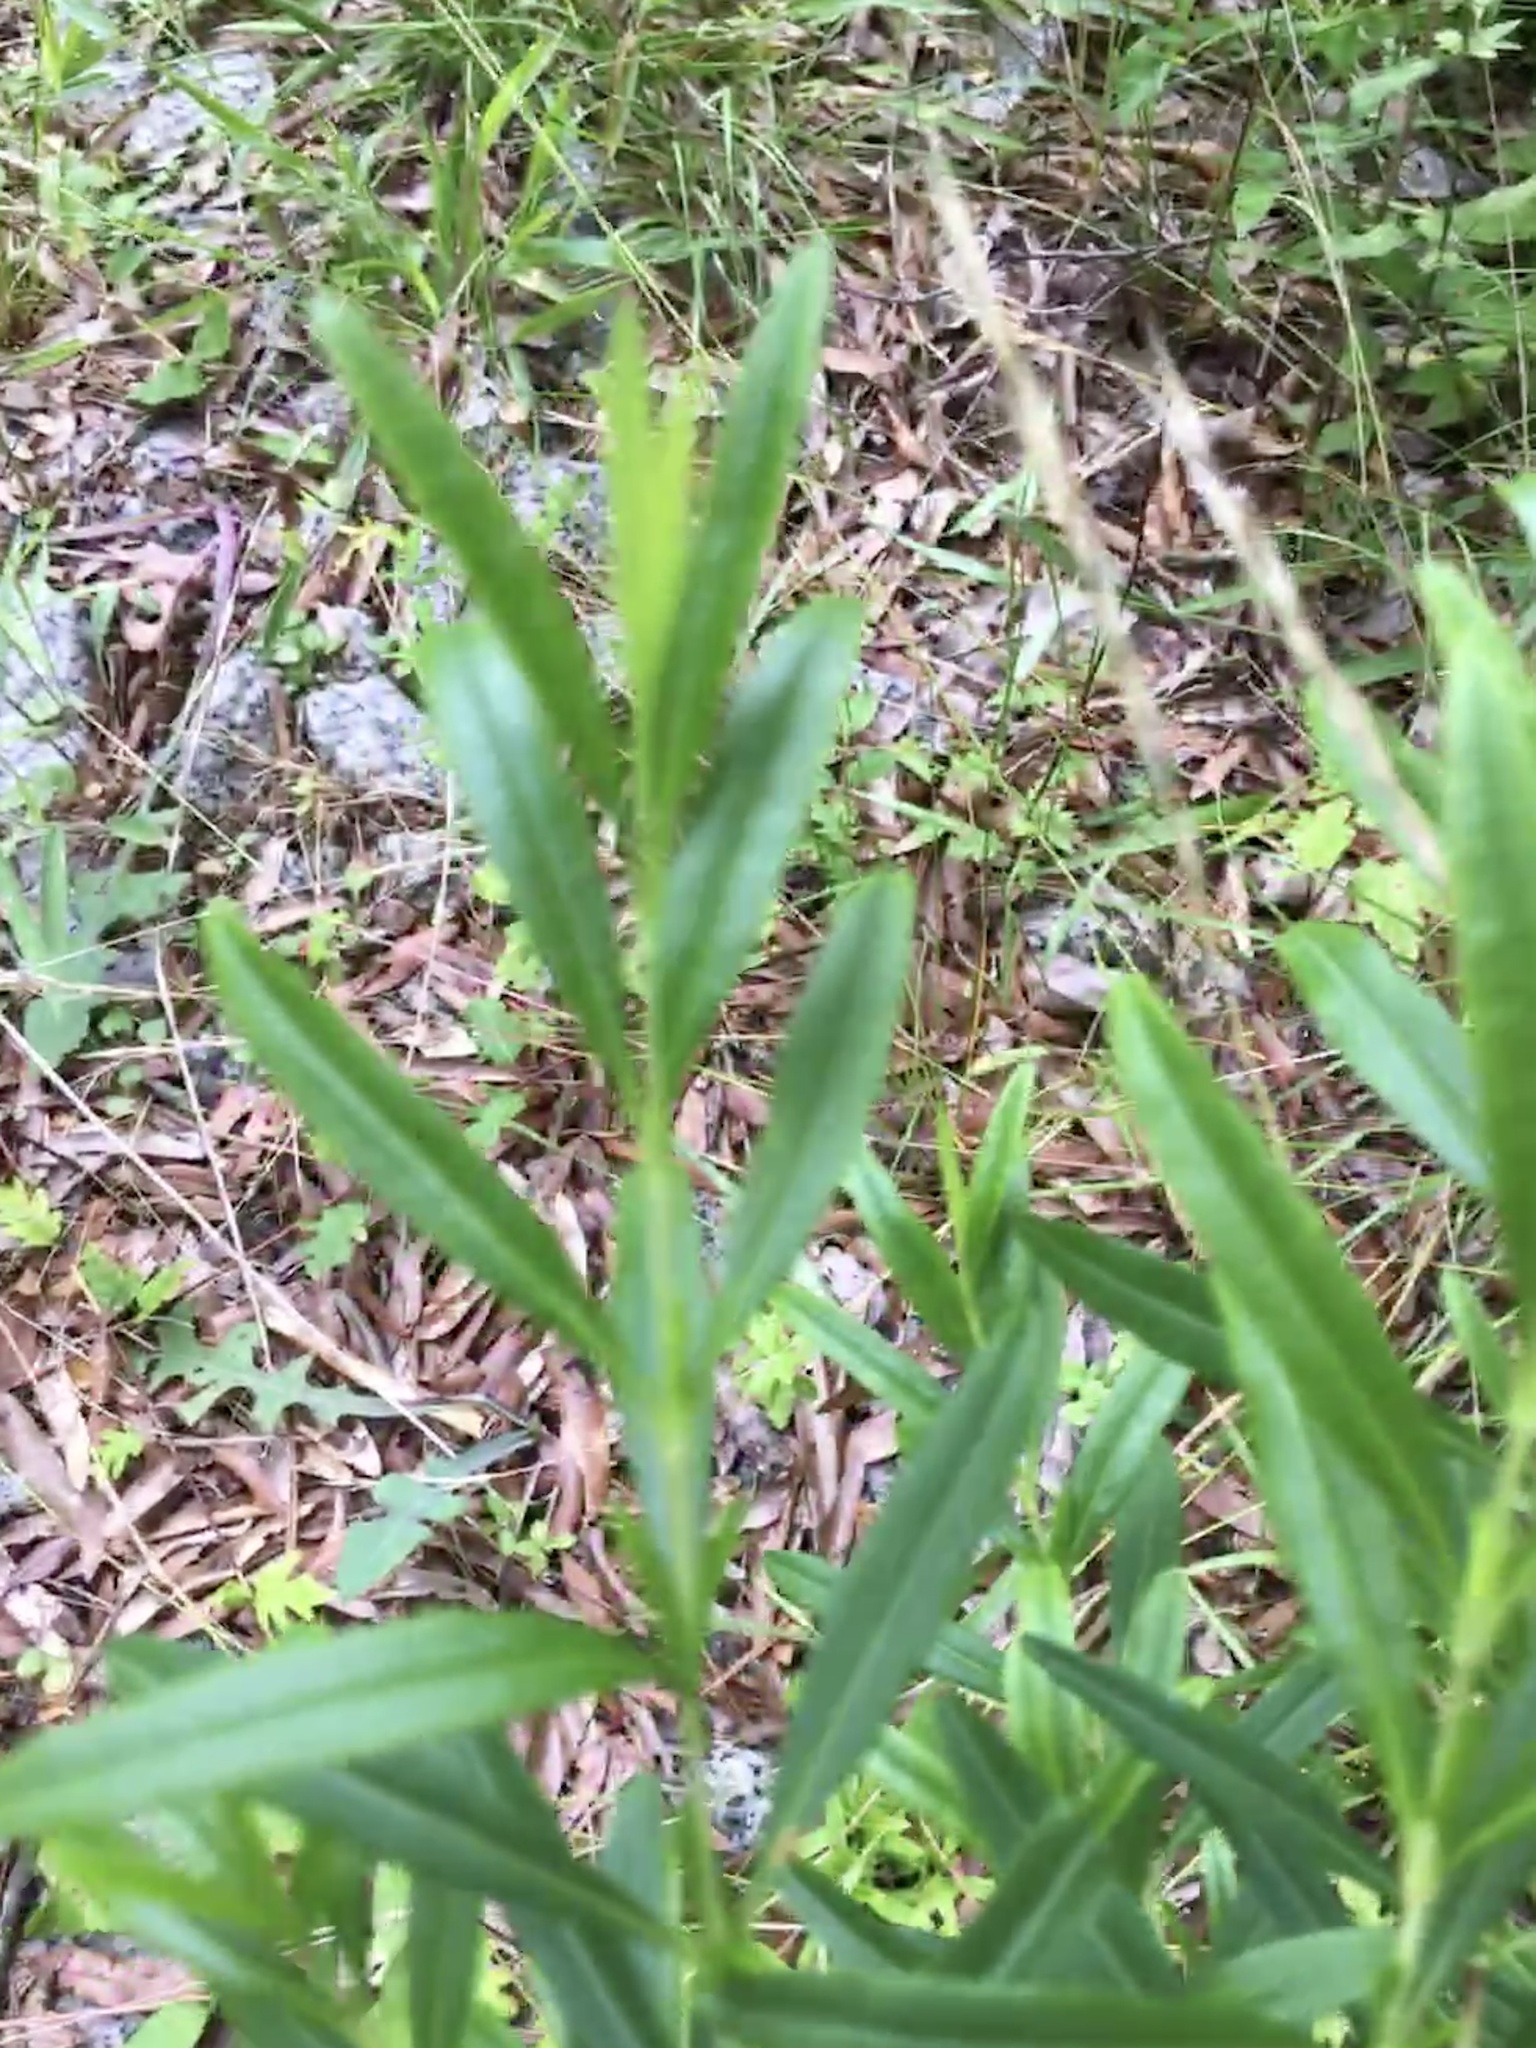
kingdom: Plantae
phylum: Tracheophyta
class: Magnoliopsida
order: Malpighiales
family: Hypericaceae
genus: Hypericum
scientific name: Hypericum prolificum
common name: Shrubby st. john's-wort
